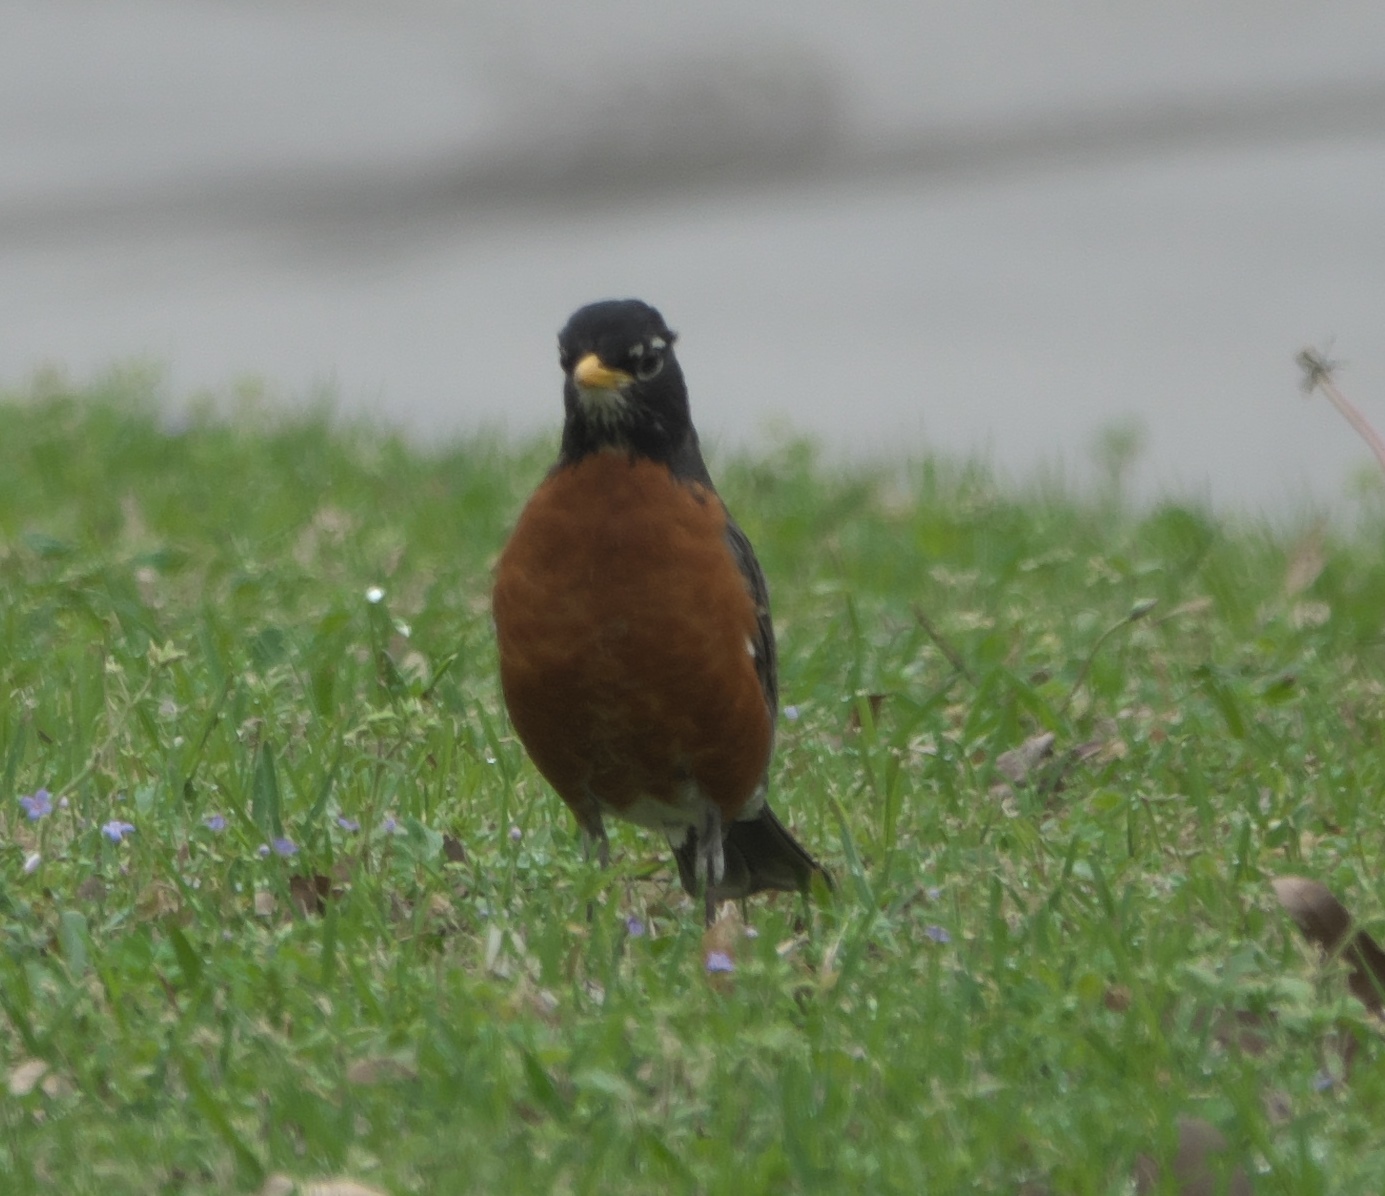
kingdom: Animalia
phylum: Chordata
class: Aves
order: Passeriformes
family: Turdidae
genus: Turdus
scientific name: Turdus migratorius
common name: American robin
